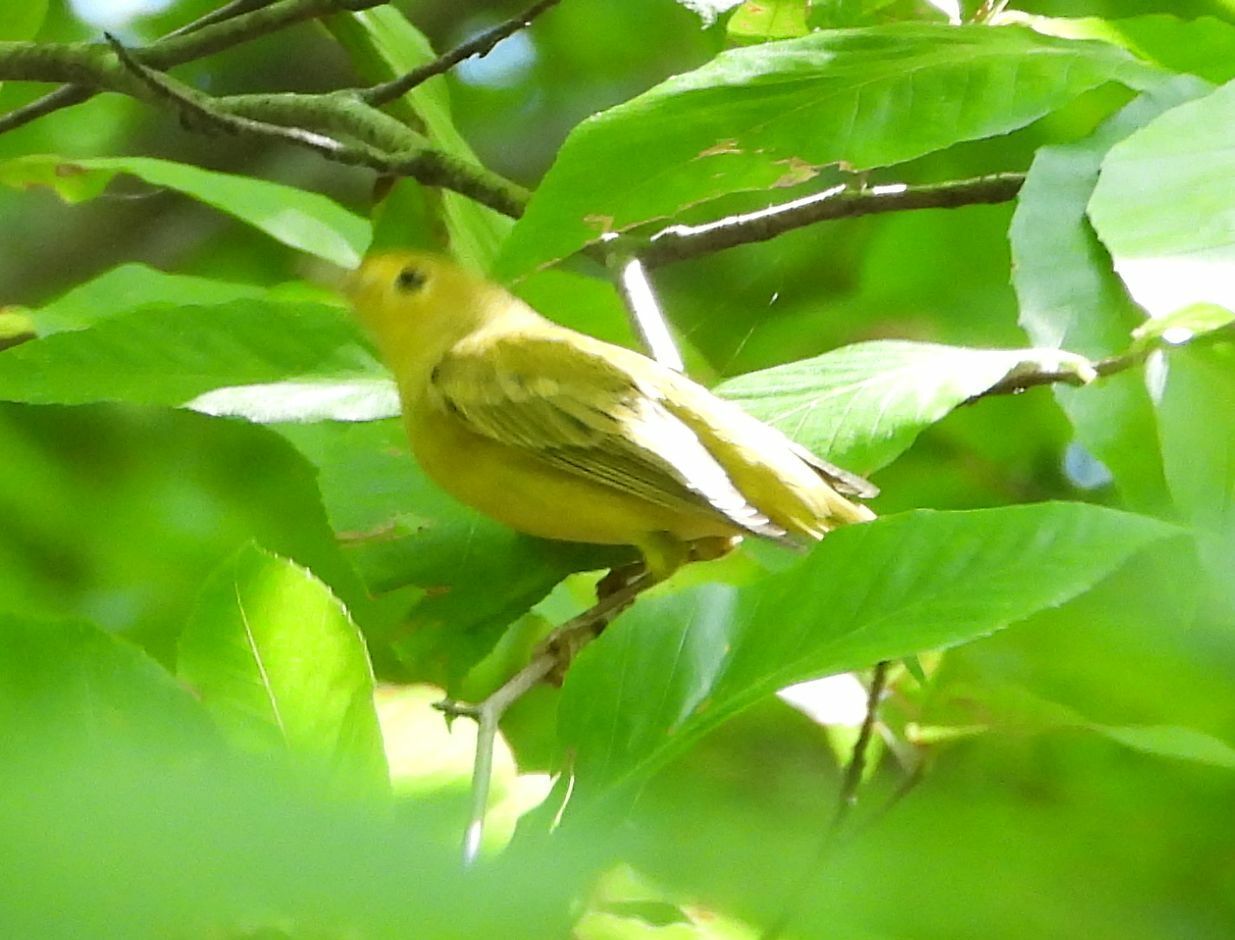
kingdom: Animalia
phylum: Chordata
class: Aves
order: Passeriformes
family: Parulidae
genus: Setophaga
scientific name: Setophaga petechia
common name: Yellow warbler
